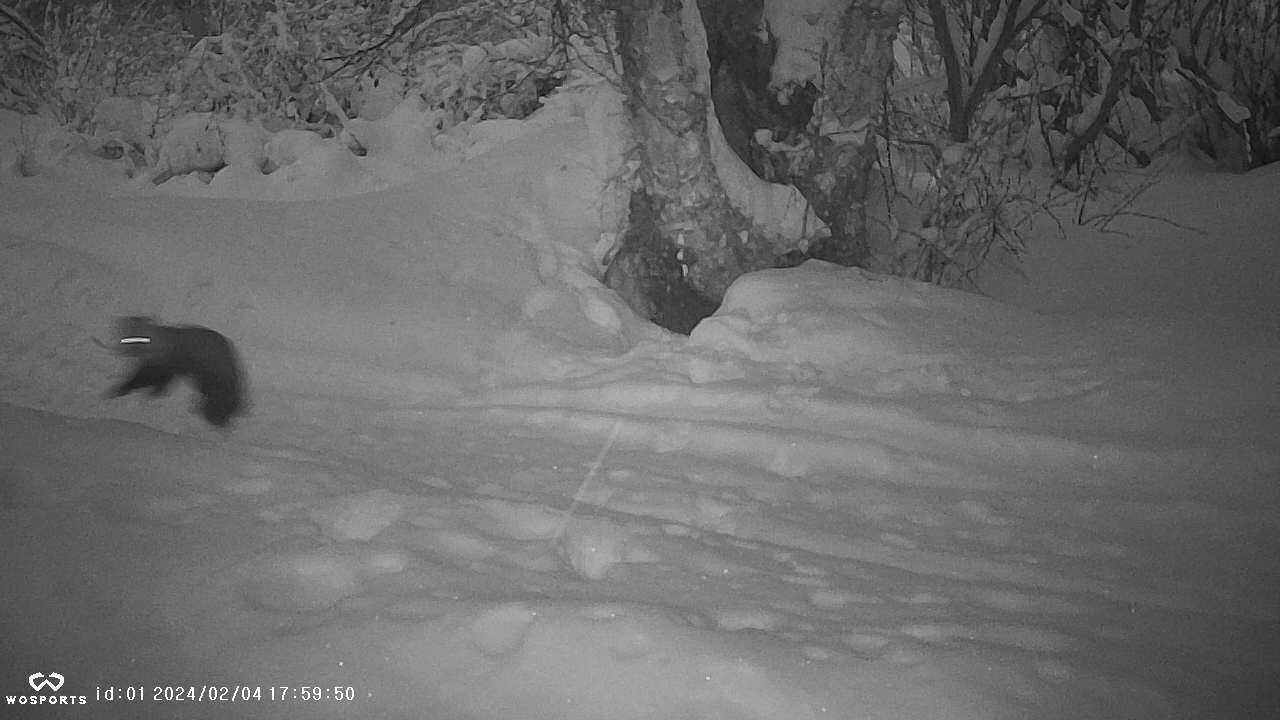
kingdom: Animalia
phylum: Chordata
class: Mammalia
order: Carnivora
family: Mustelidae
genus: Martes
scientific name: Martes americana
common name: American marten
